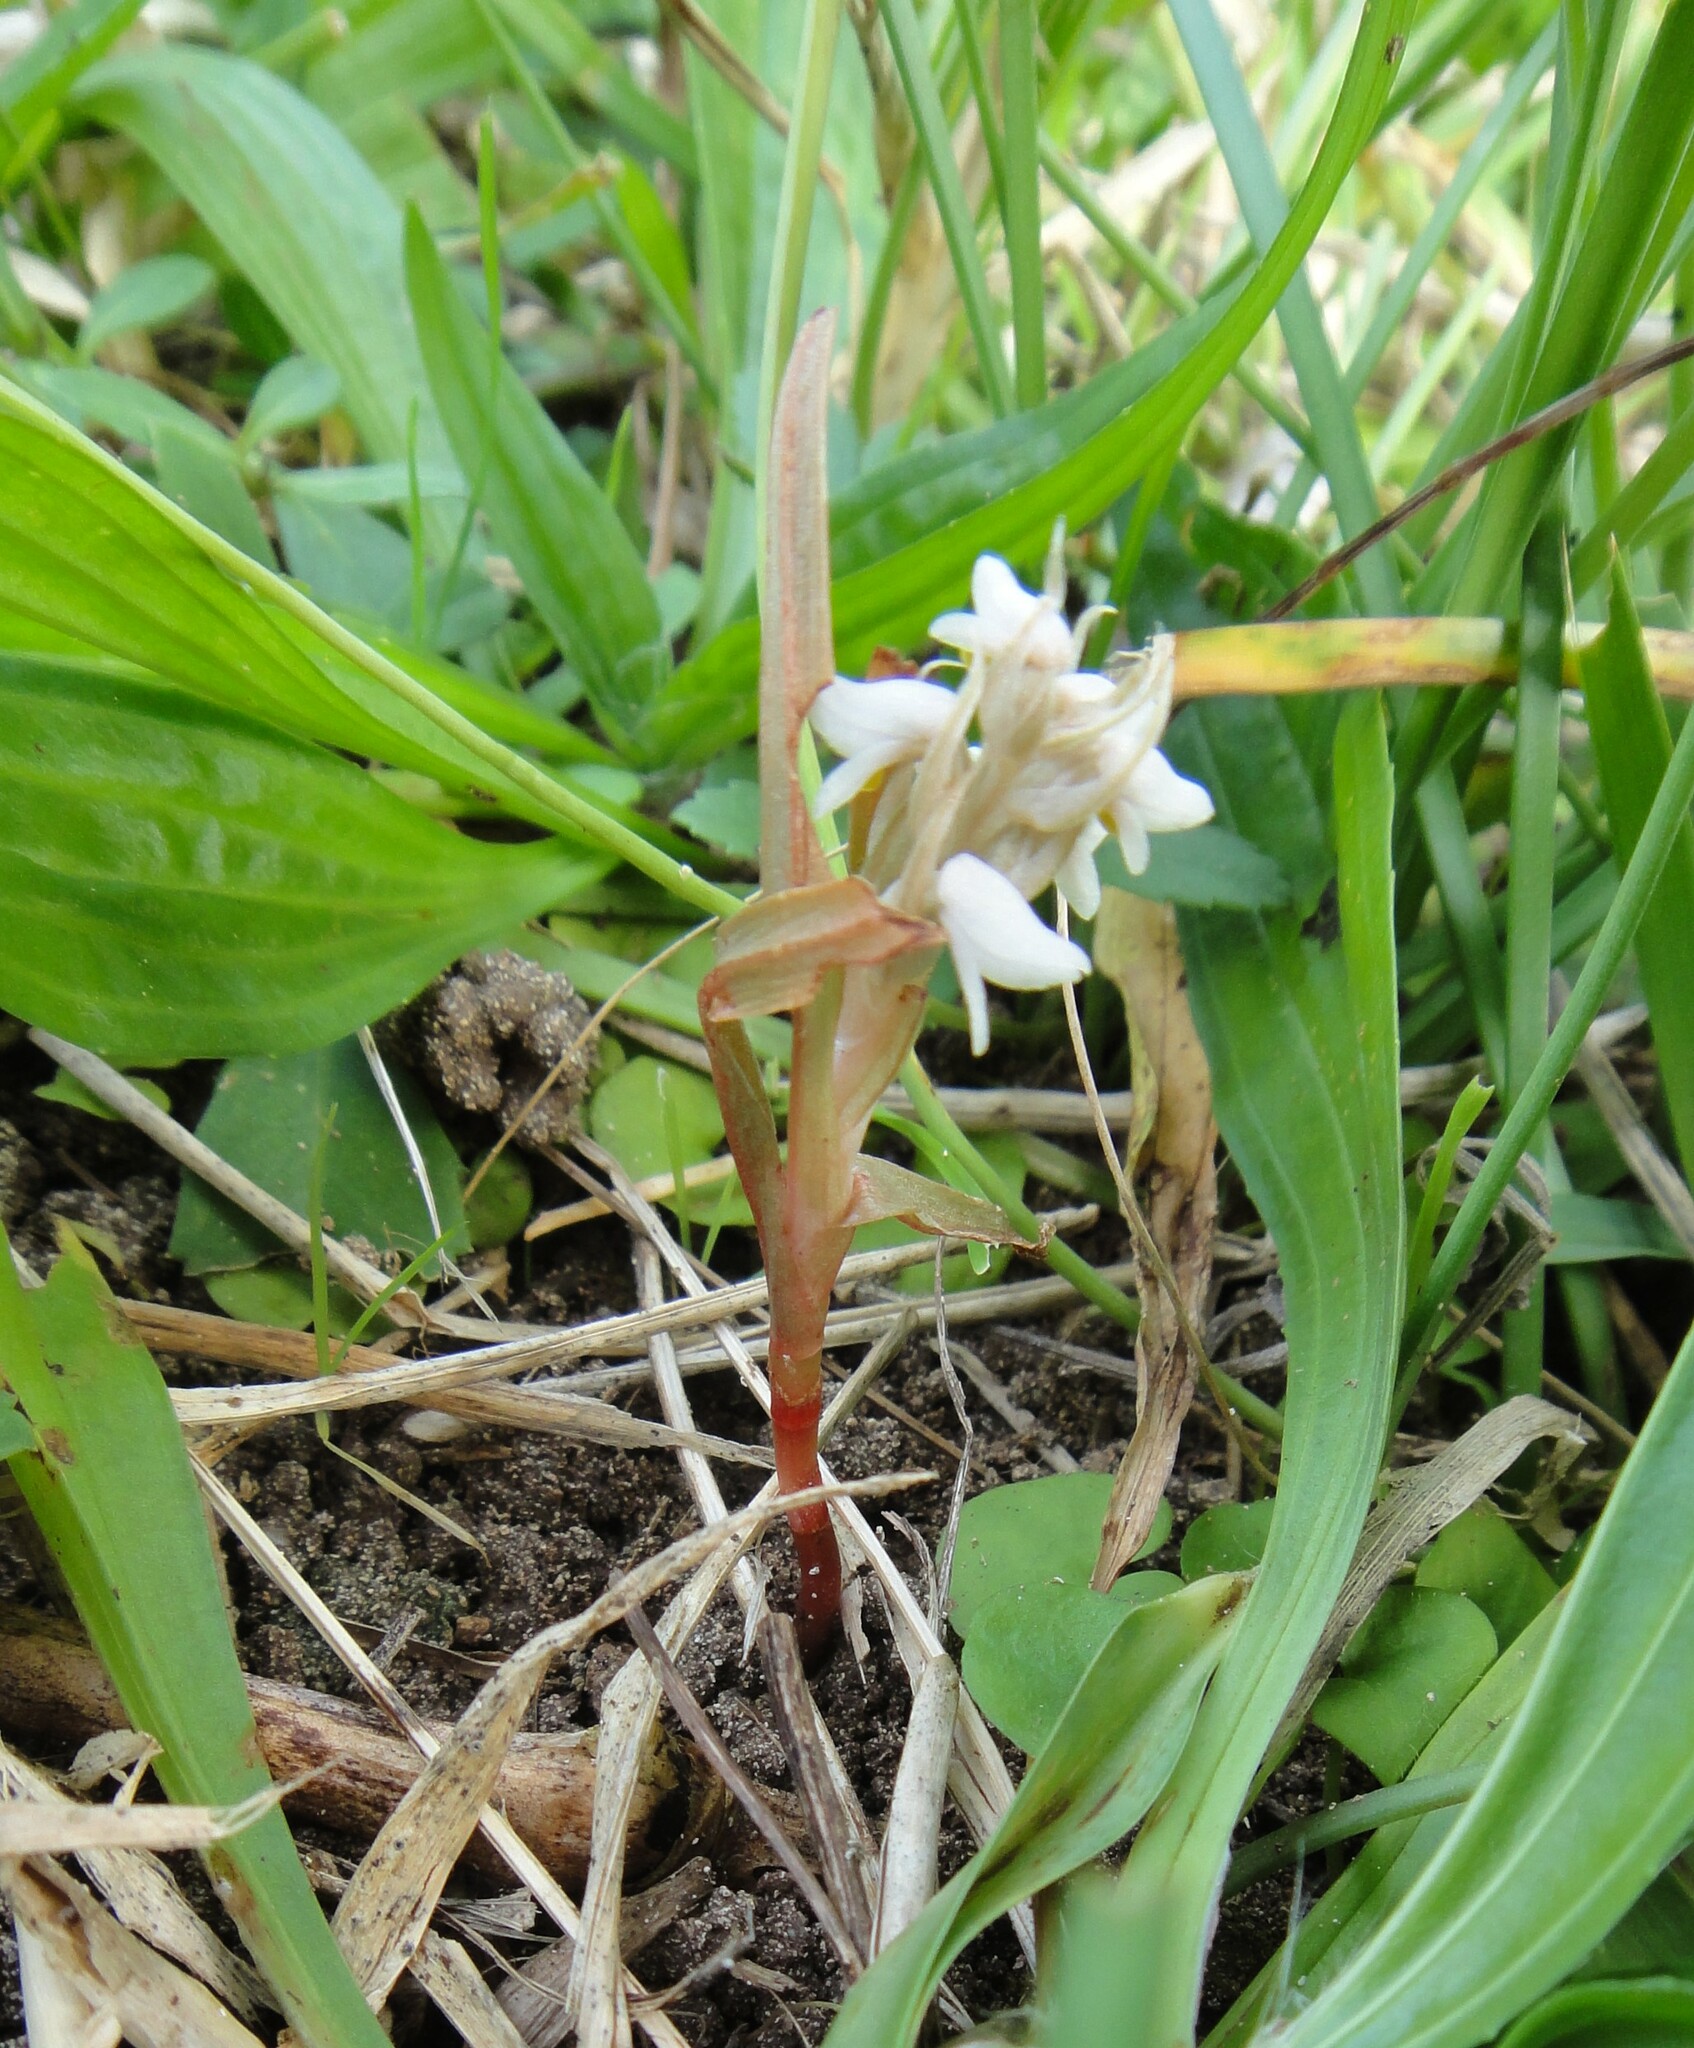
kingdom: Plantae
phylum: Tracheophyta
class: Liliopsida
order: Asparagales
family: Orchidaceae
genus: Zeuxine
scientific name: Zeuxine strateumatica
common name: Soldier's orchid
